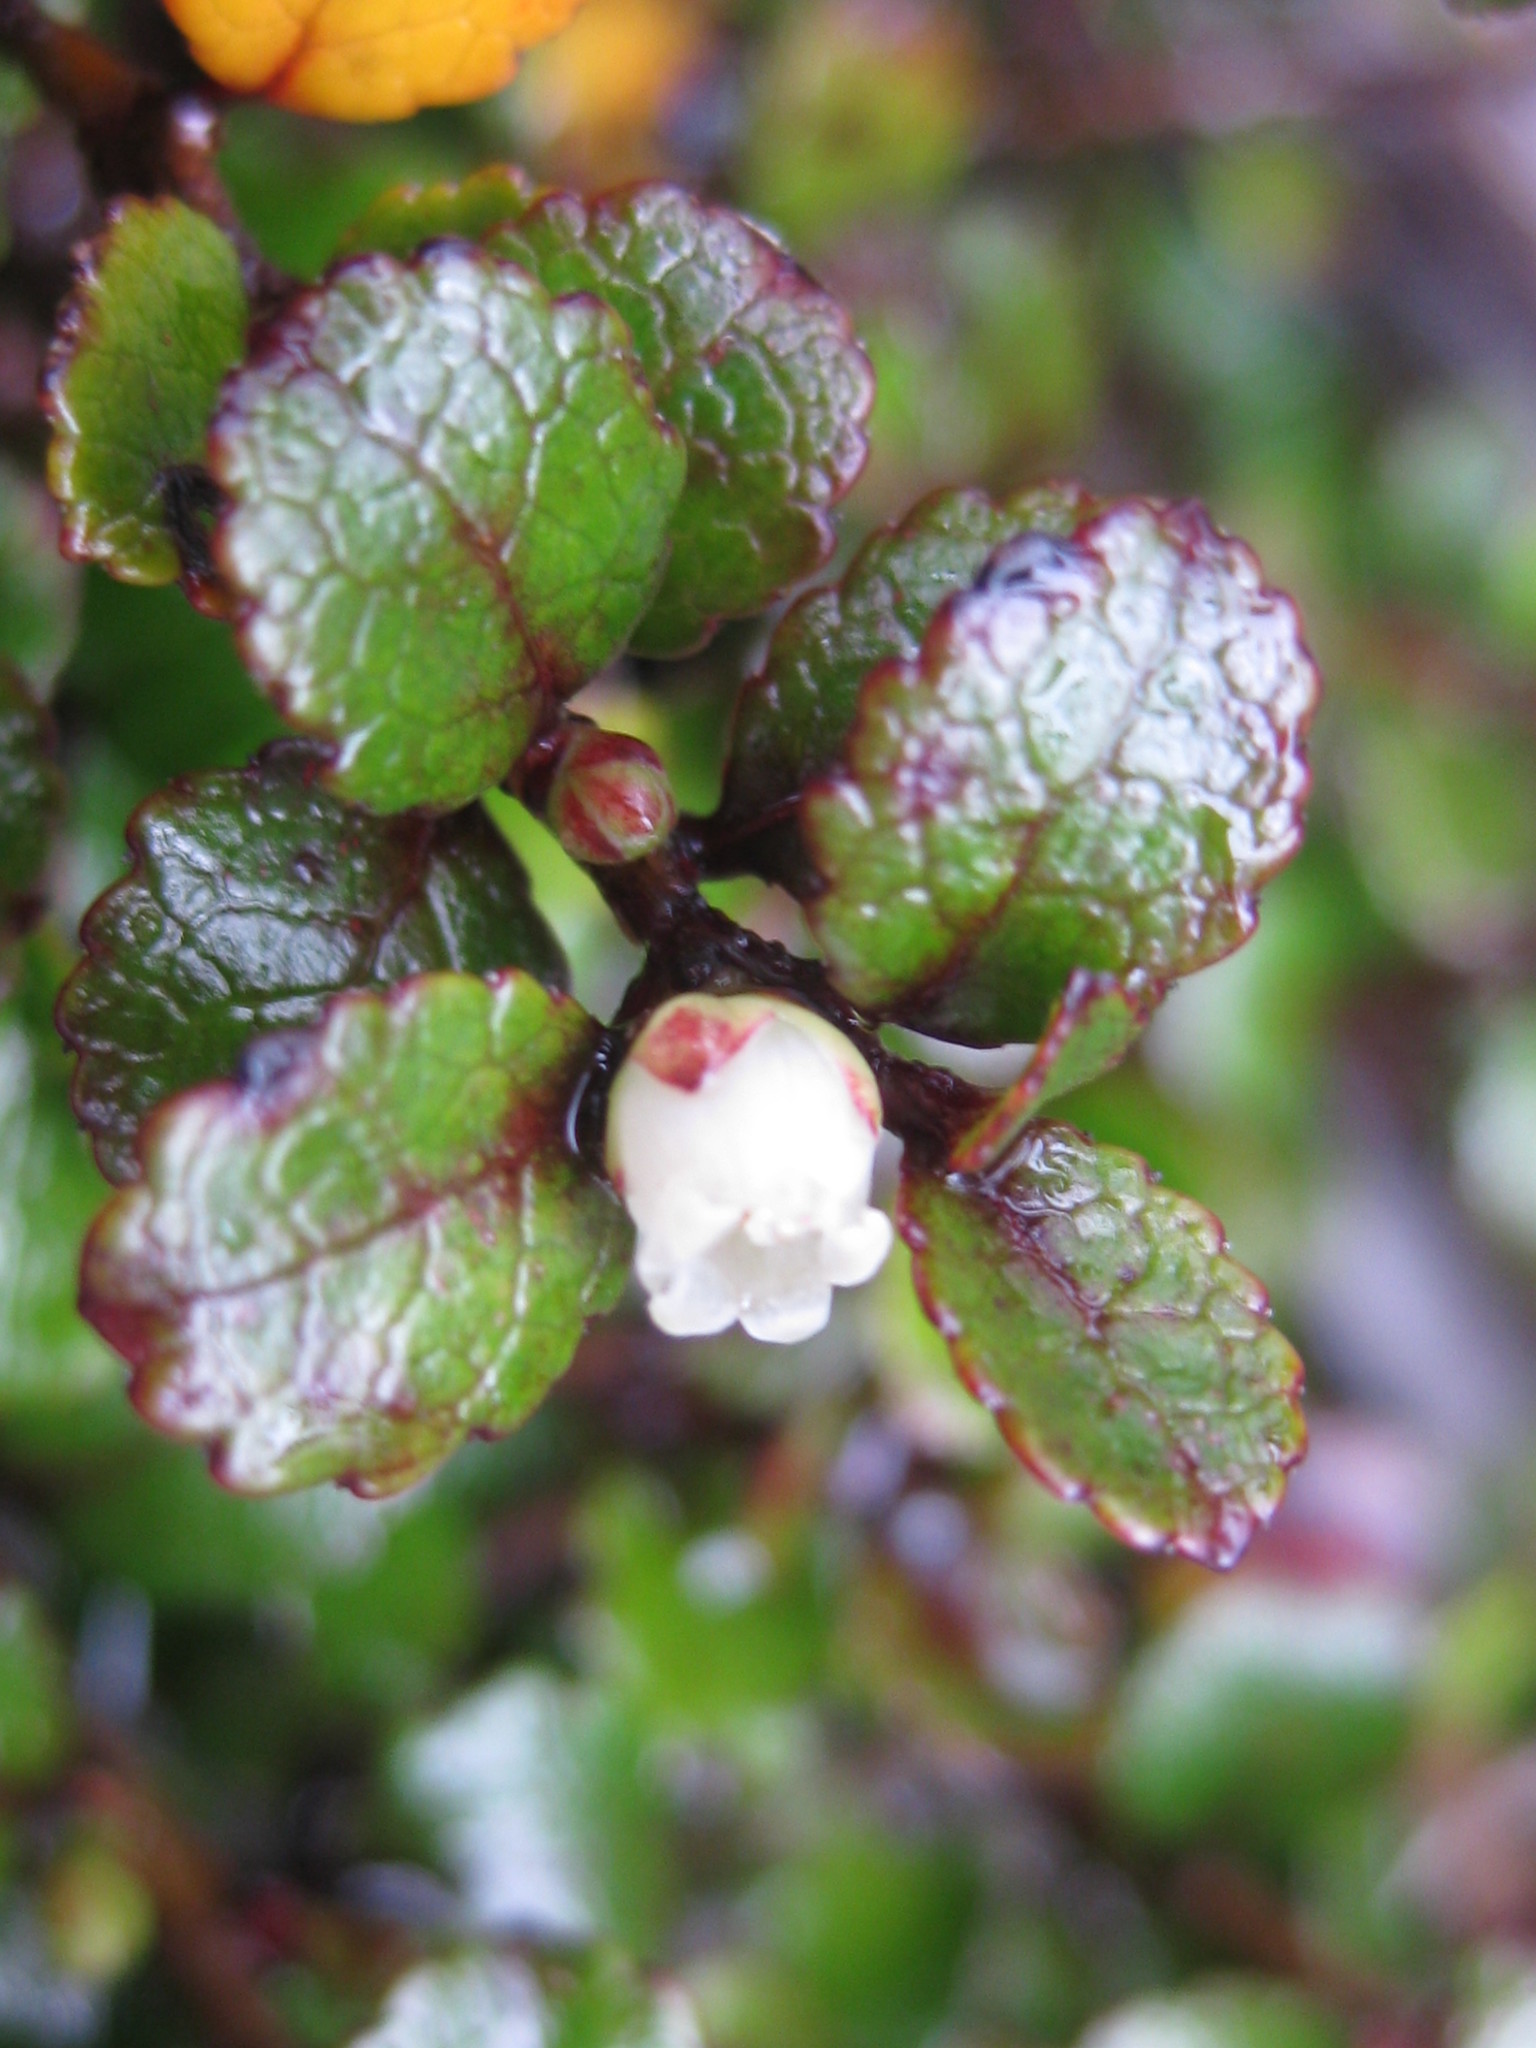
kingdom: Plantae
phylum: Tracheophyta
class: Magnoliopsida
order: Ericales
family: Ericaceae
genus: Gaultheria
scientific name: Gaultheria depressa
